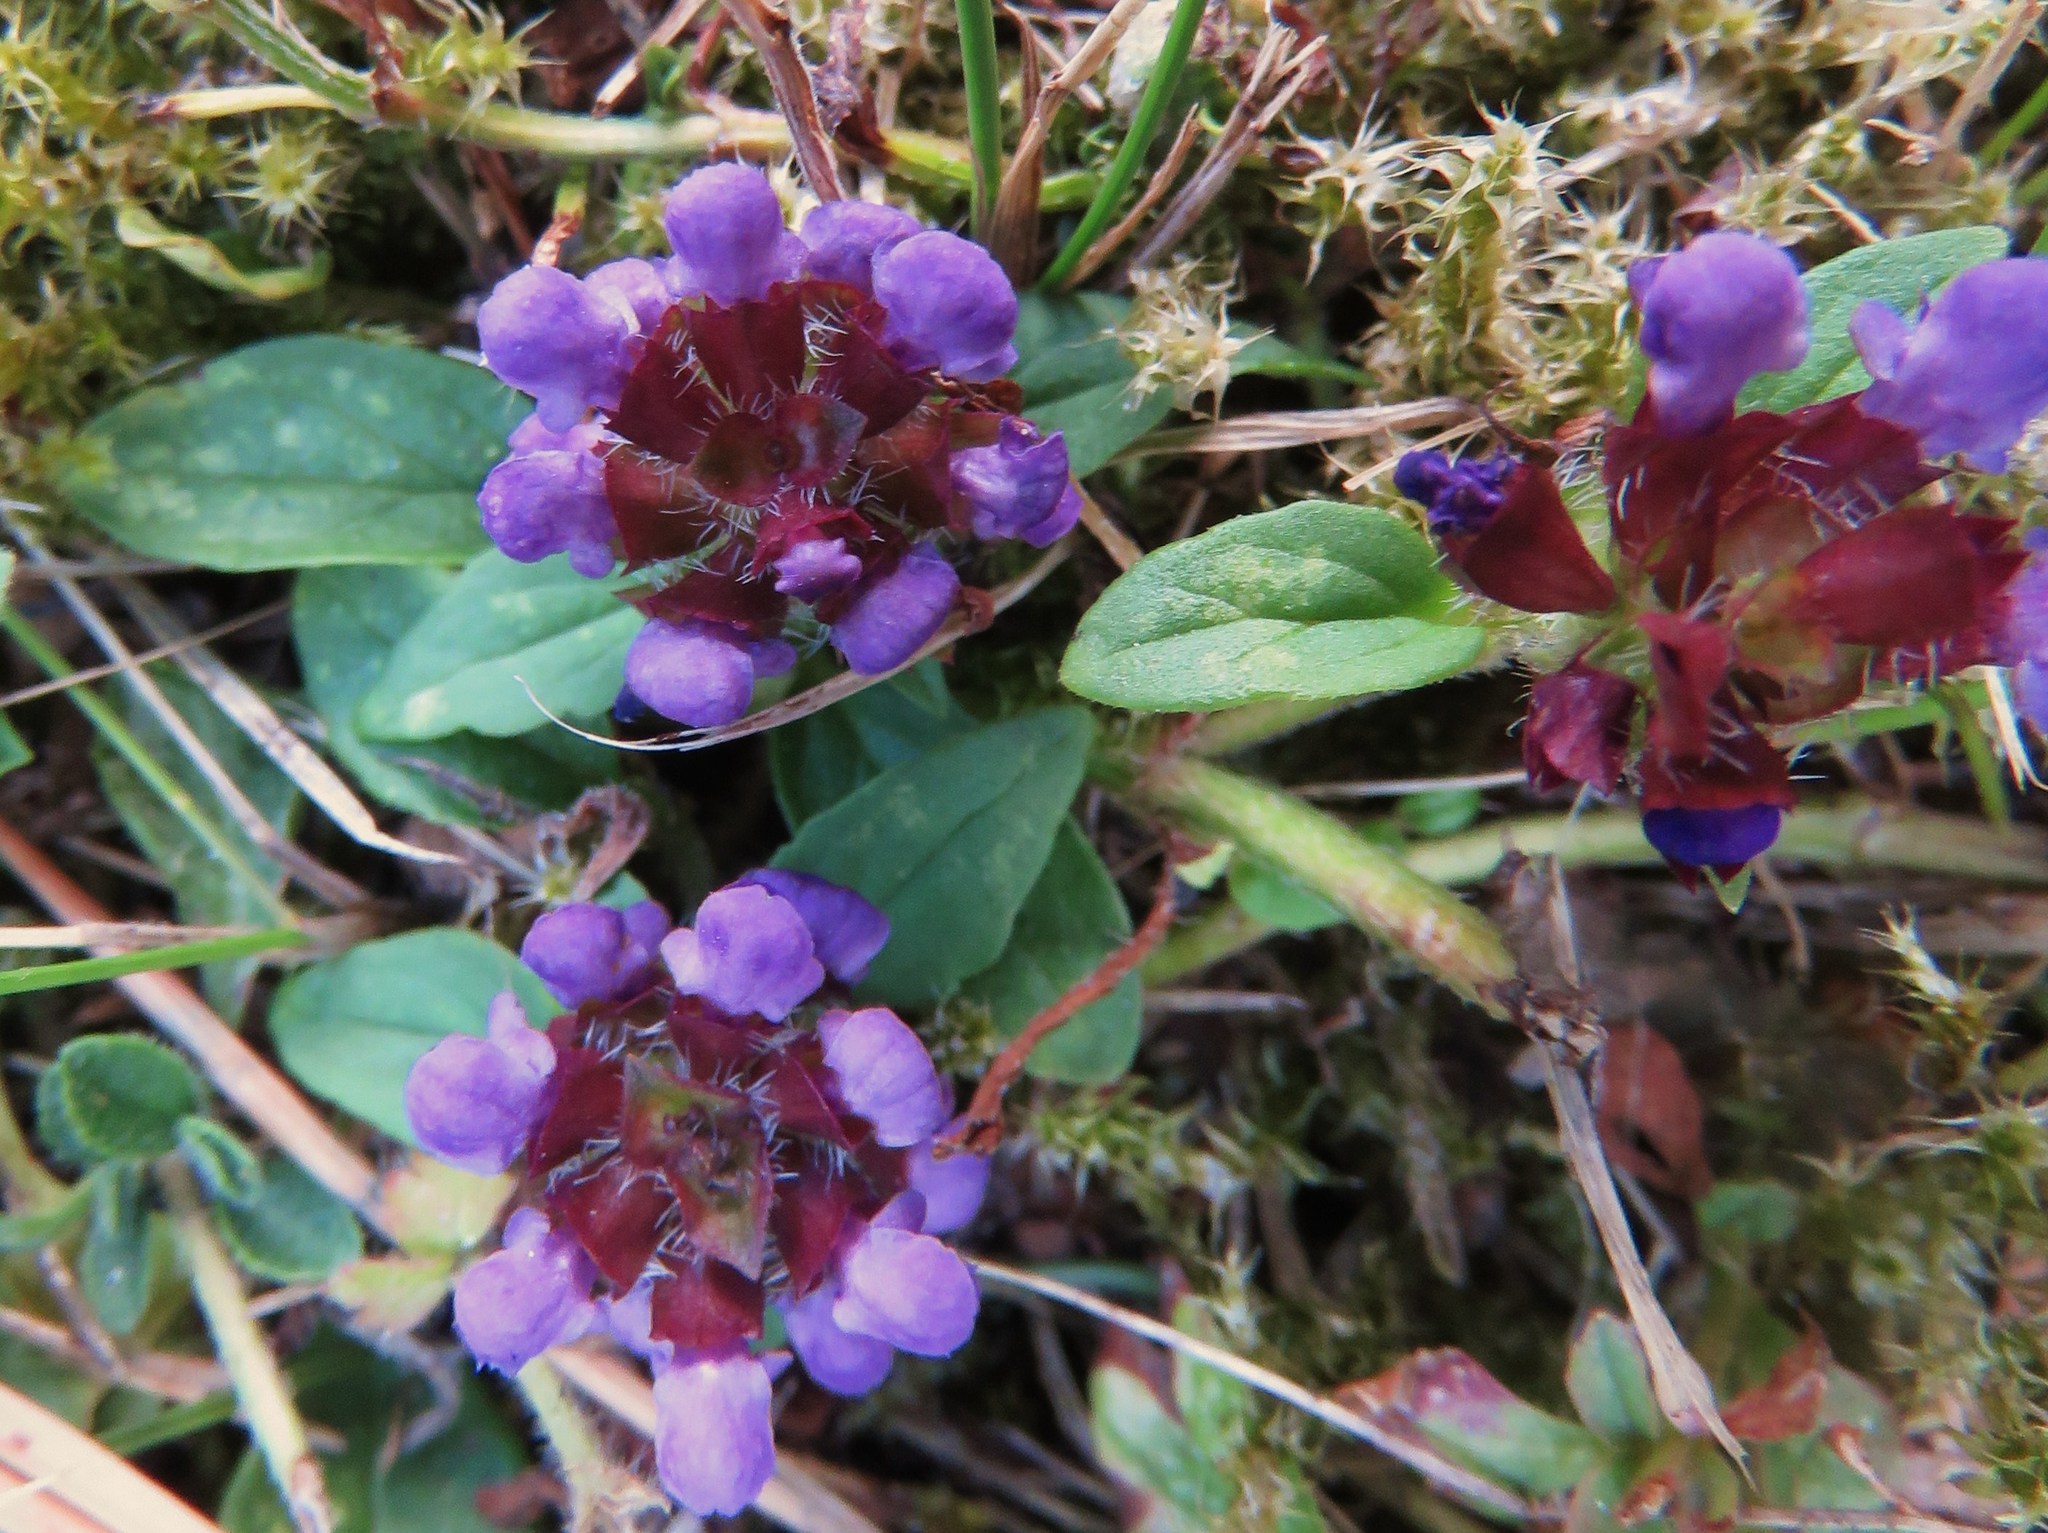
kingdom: Plantae
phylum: Tracheophyta
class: Magnoliopsida
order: Lamiales
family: Lamiaceae
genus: Prunella
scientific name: Prunella vulgaris
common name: Heal-all
